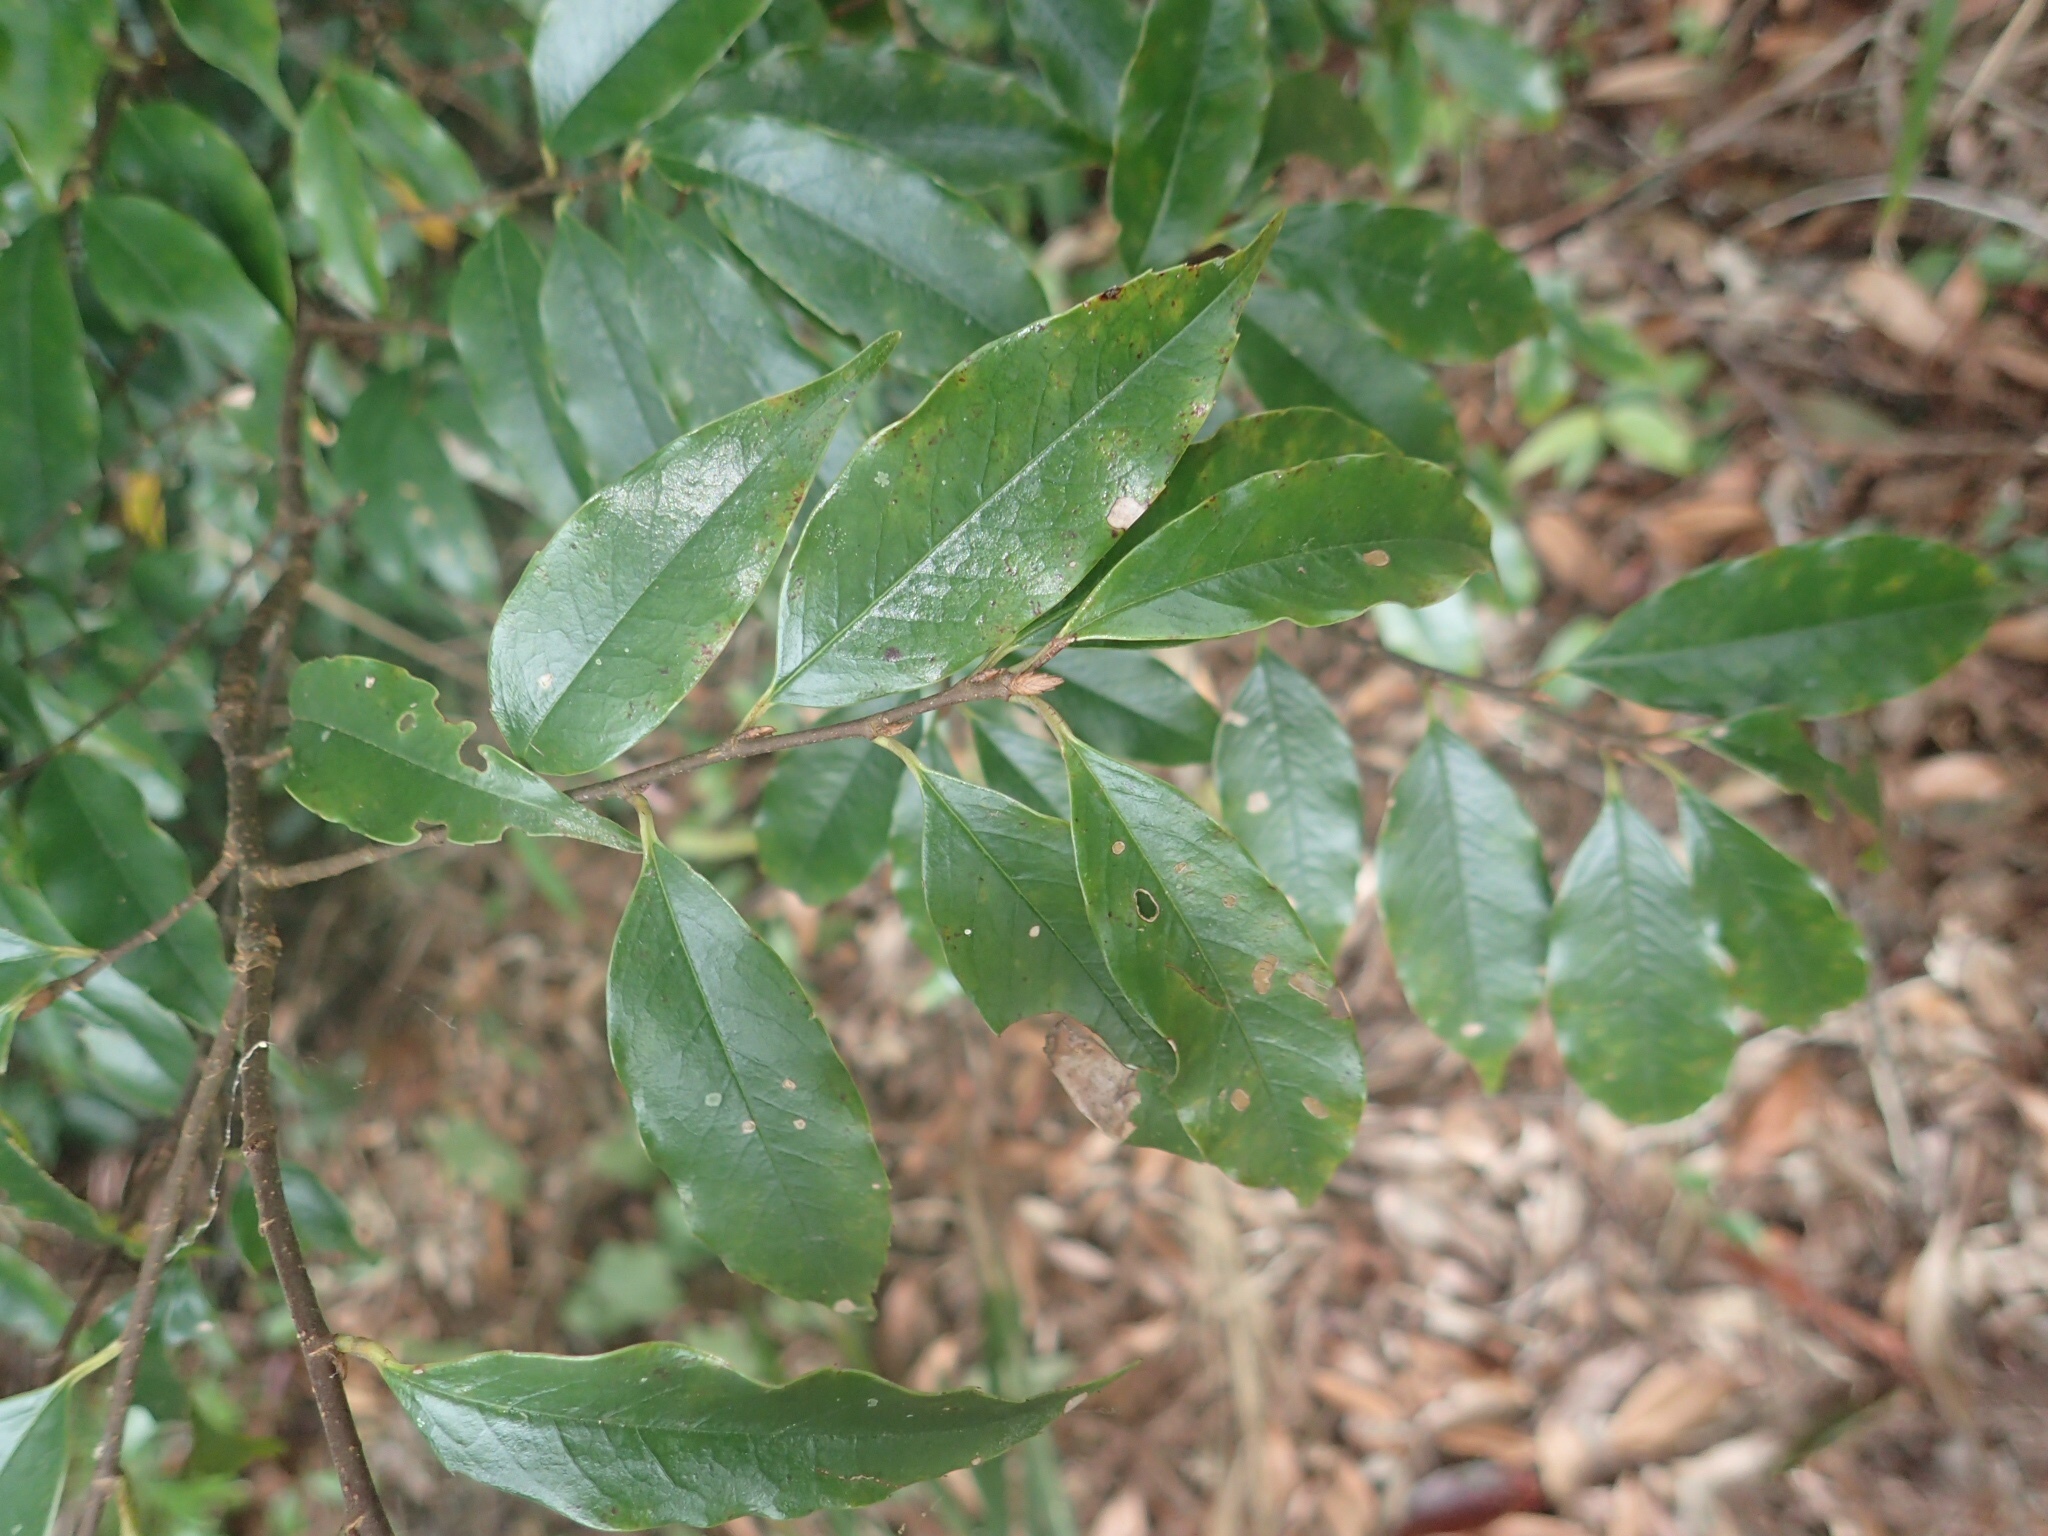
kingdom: Plantae
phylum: Tracheophyta
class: Magnoliopsida
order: Rosales
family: Rosaceae
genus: Prunus
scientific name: Prunus spinulosa
